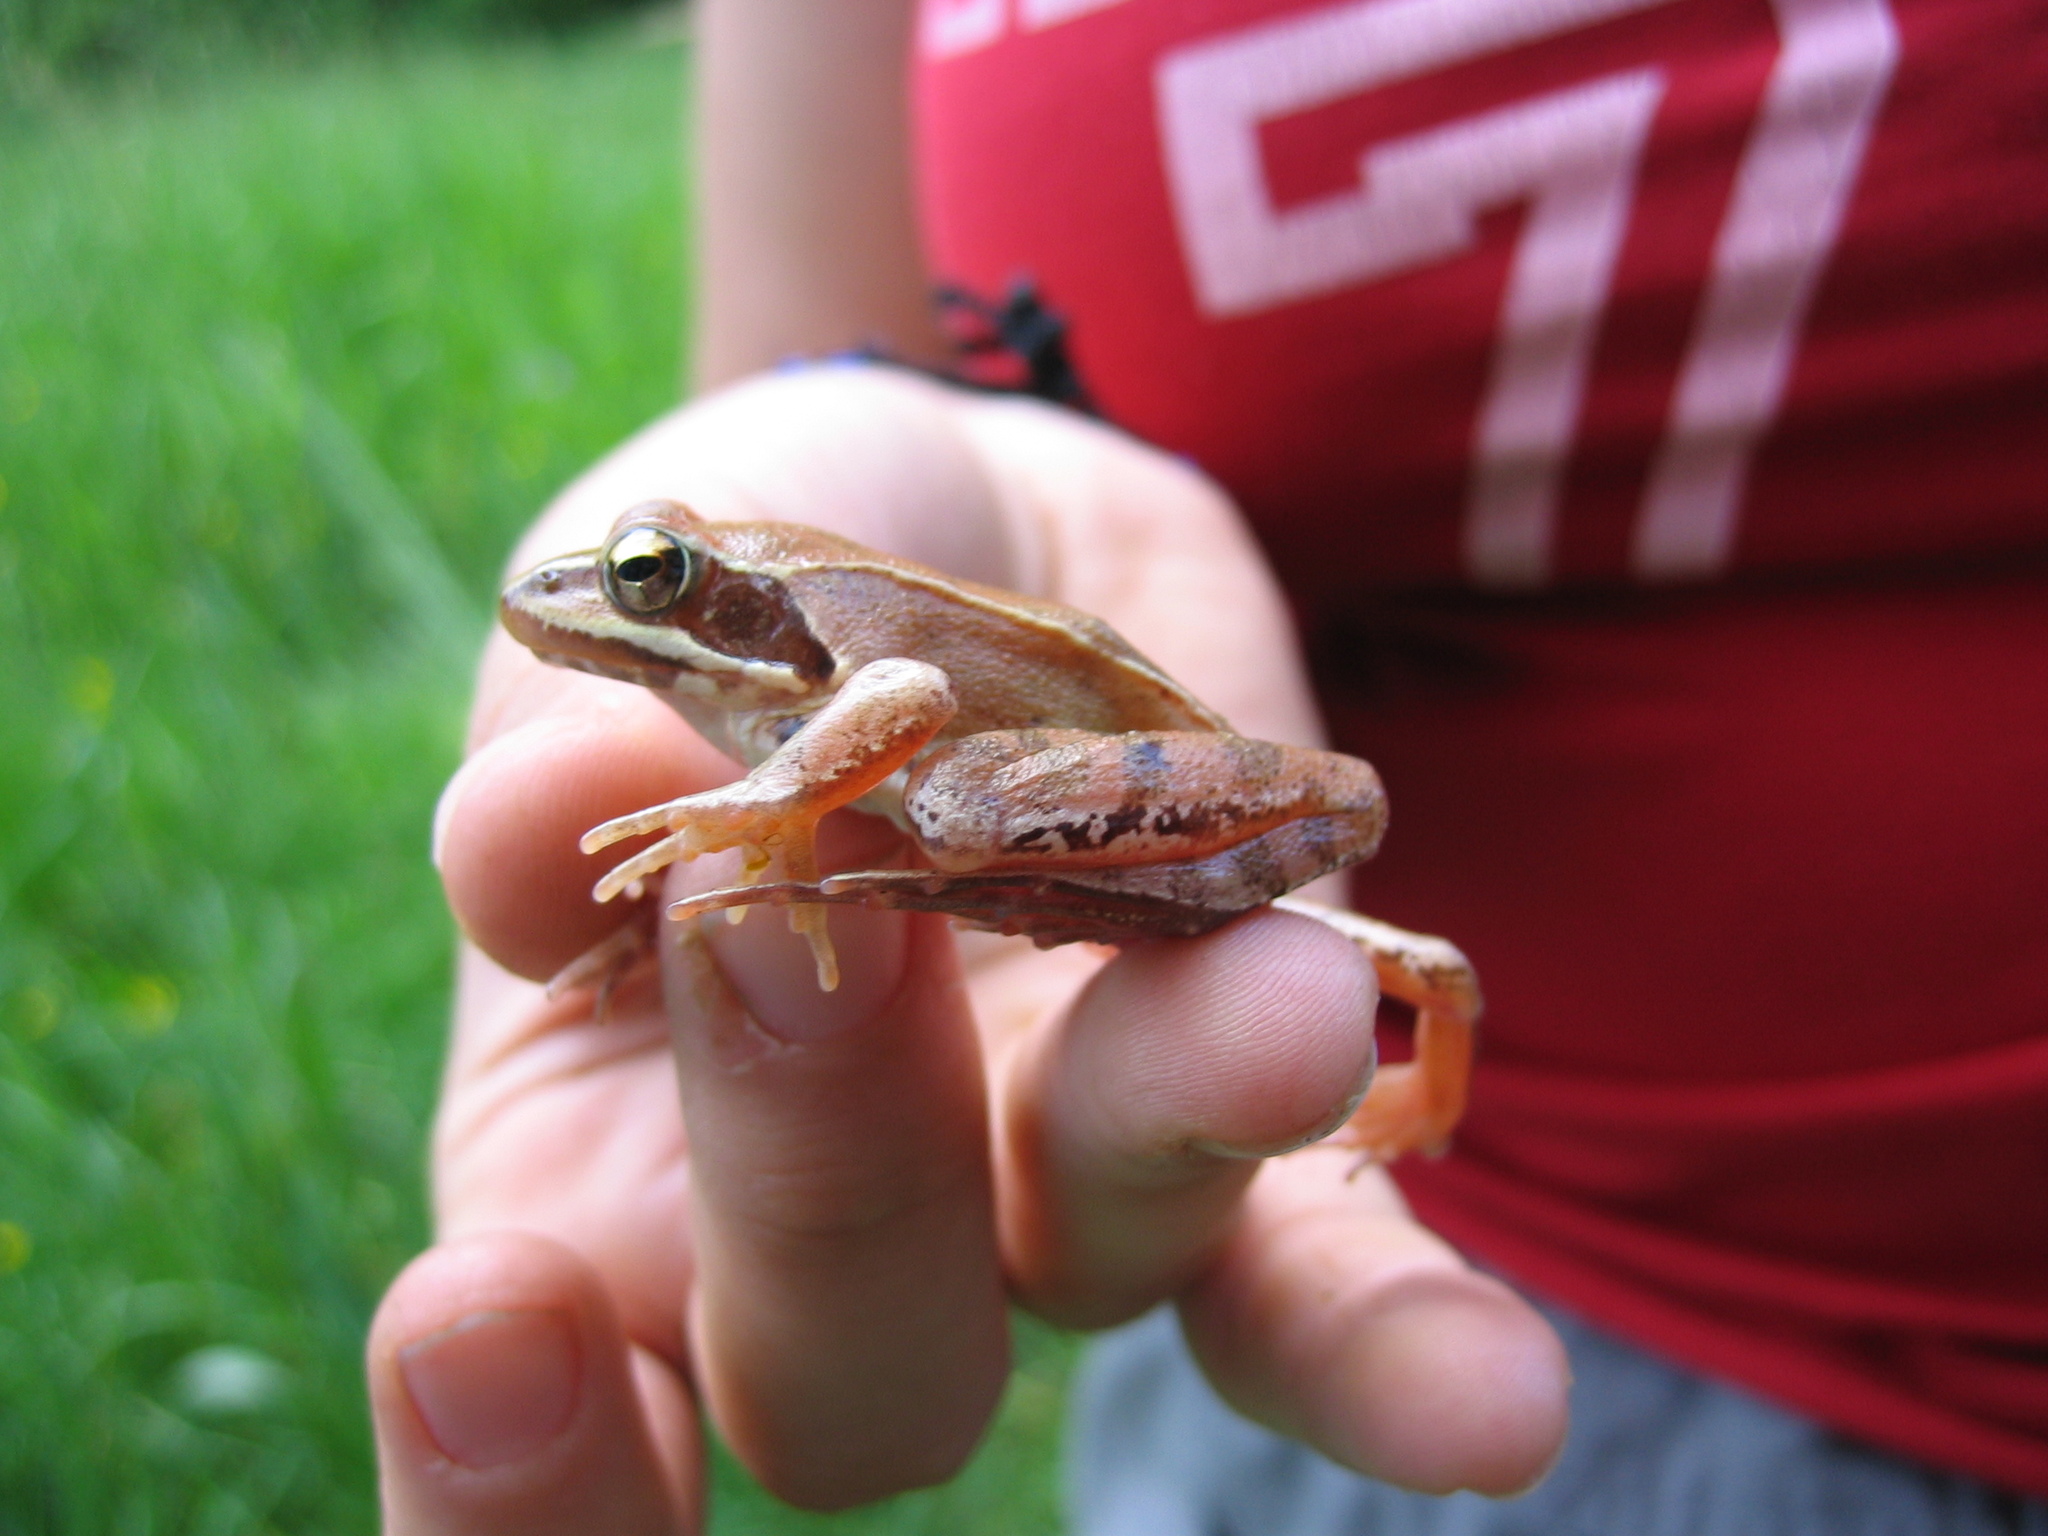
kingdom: Animalia
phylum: Chordata
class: Amphibia
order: Anura
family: Ranidae
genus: Rana
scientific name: Rana temporaria
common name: Common frog
